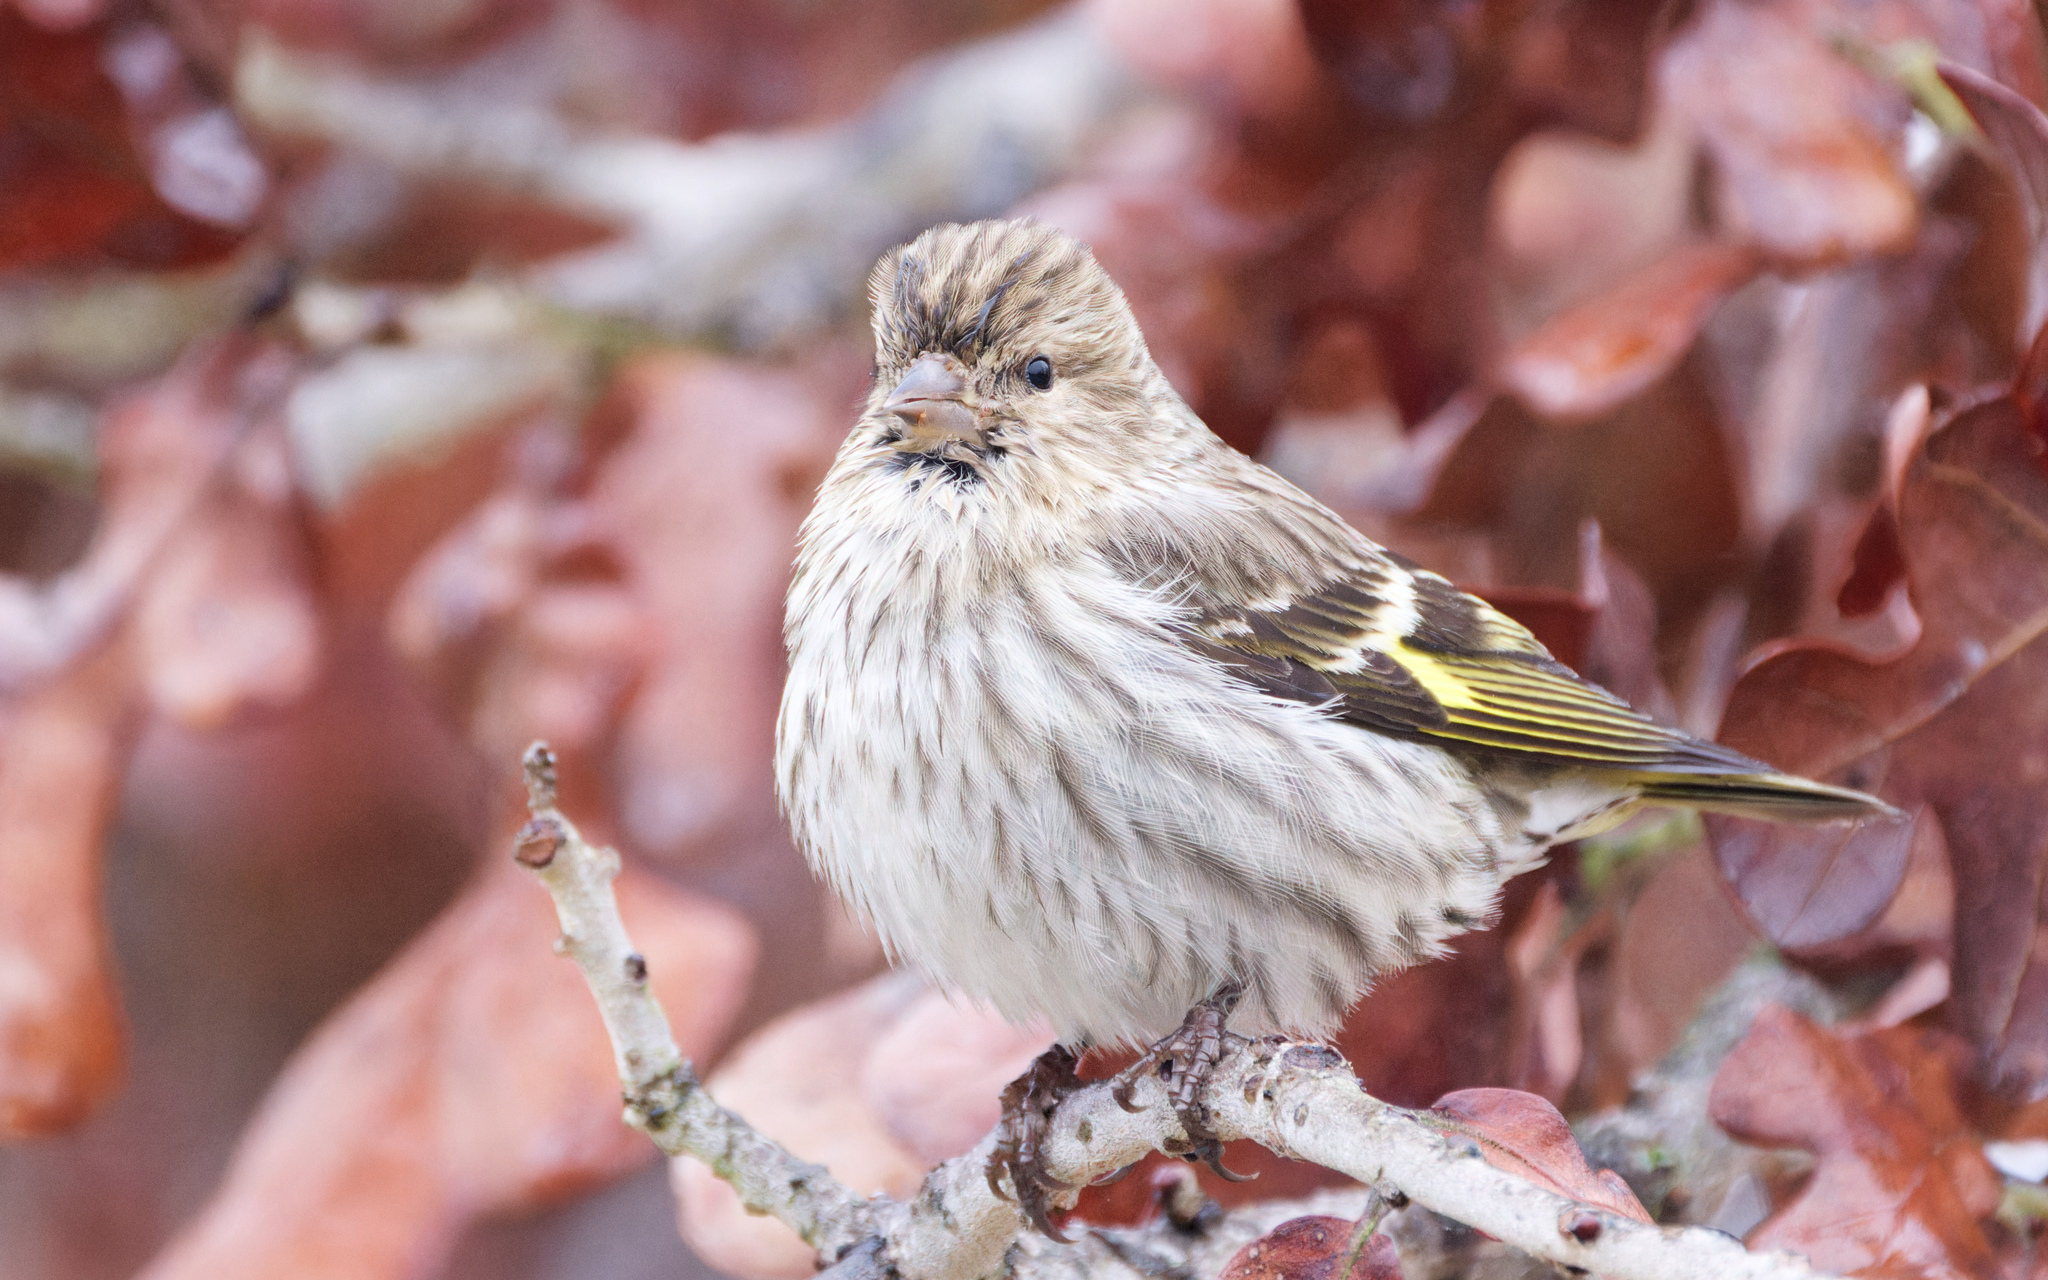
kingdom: Animalia
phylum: Chordata
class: Aves
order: Passeriformes
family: Fringillidae
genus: Spinus
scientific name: Spinus pinus
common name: Pine siskin
